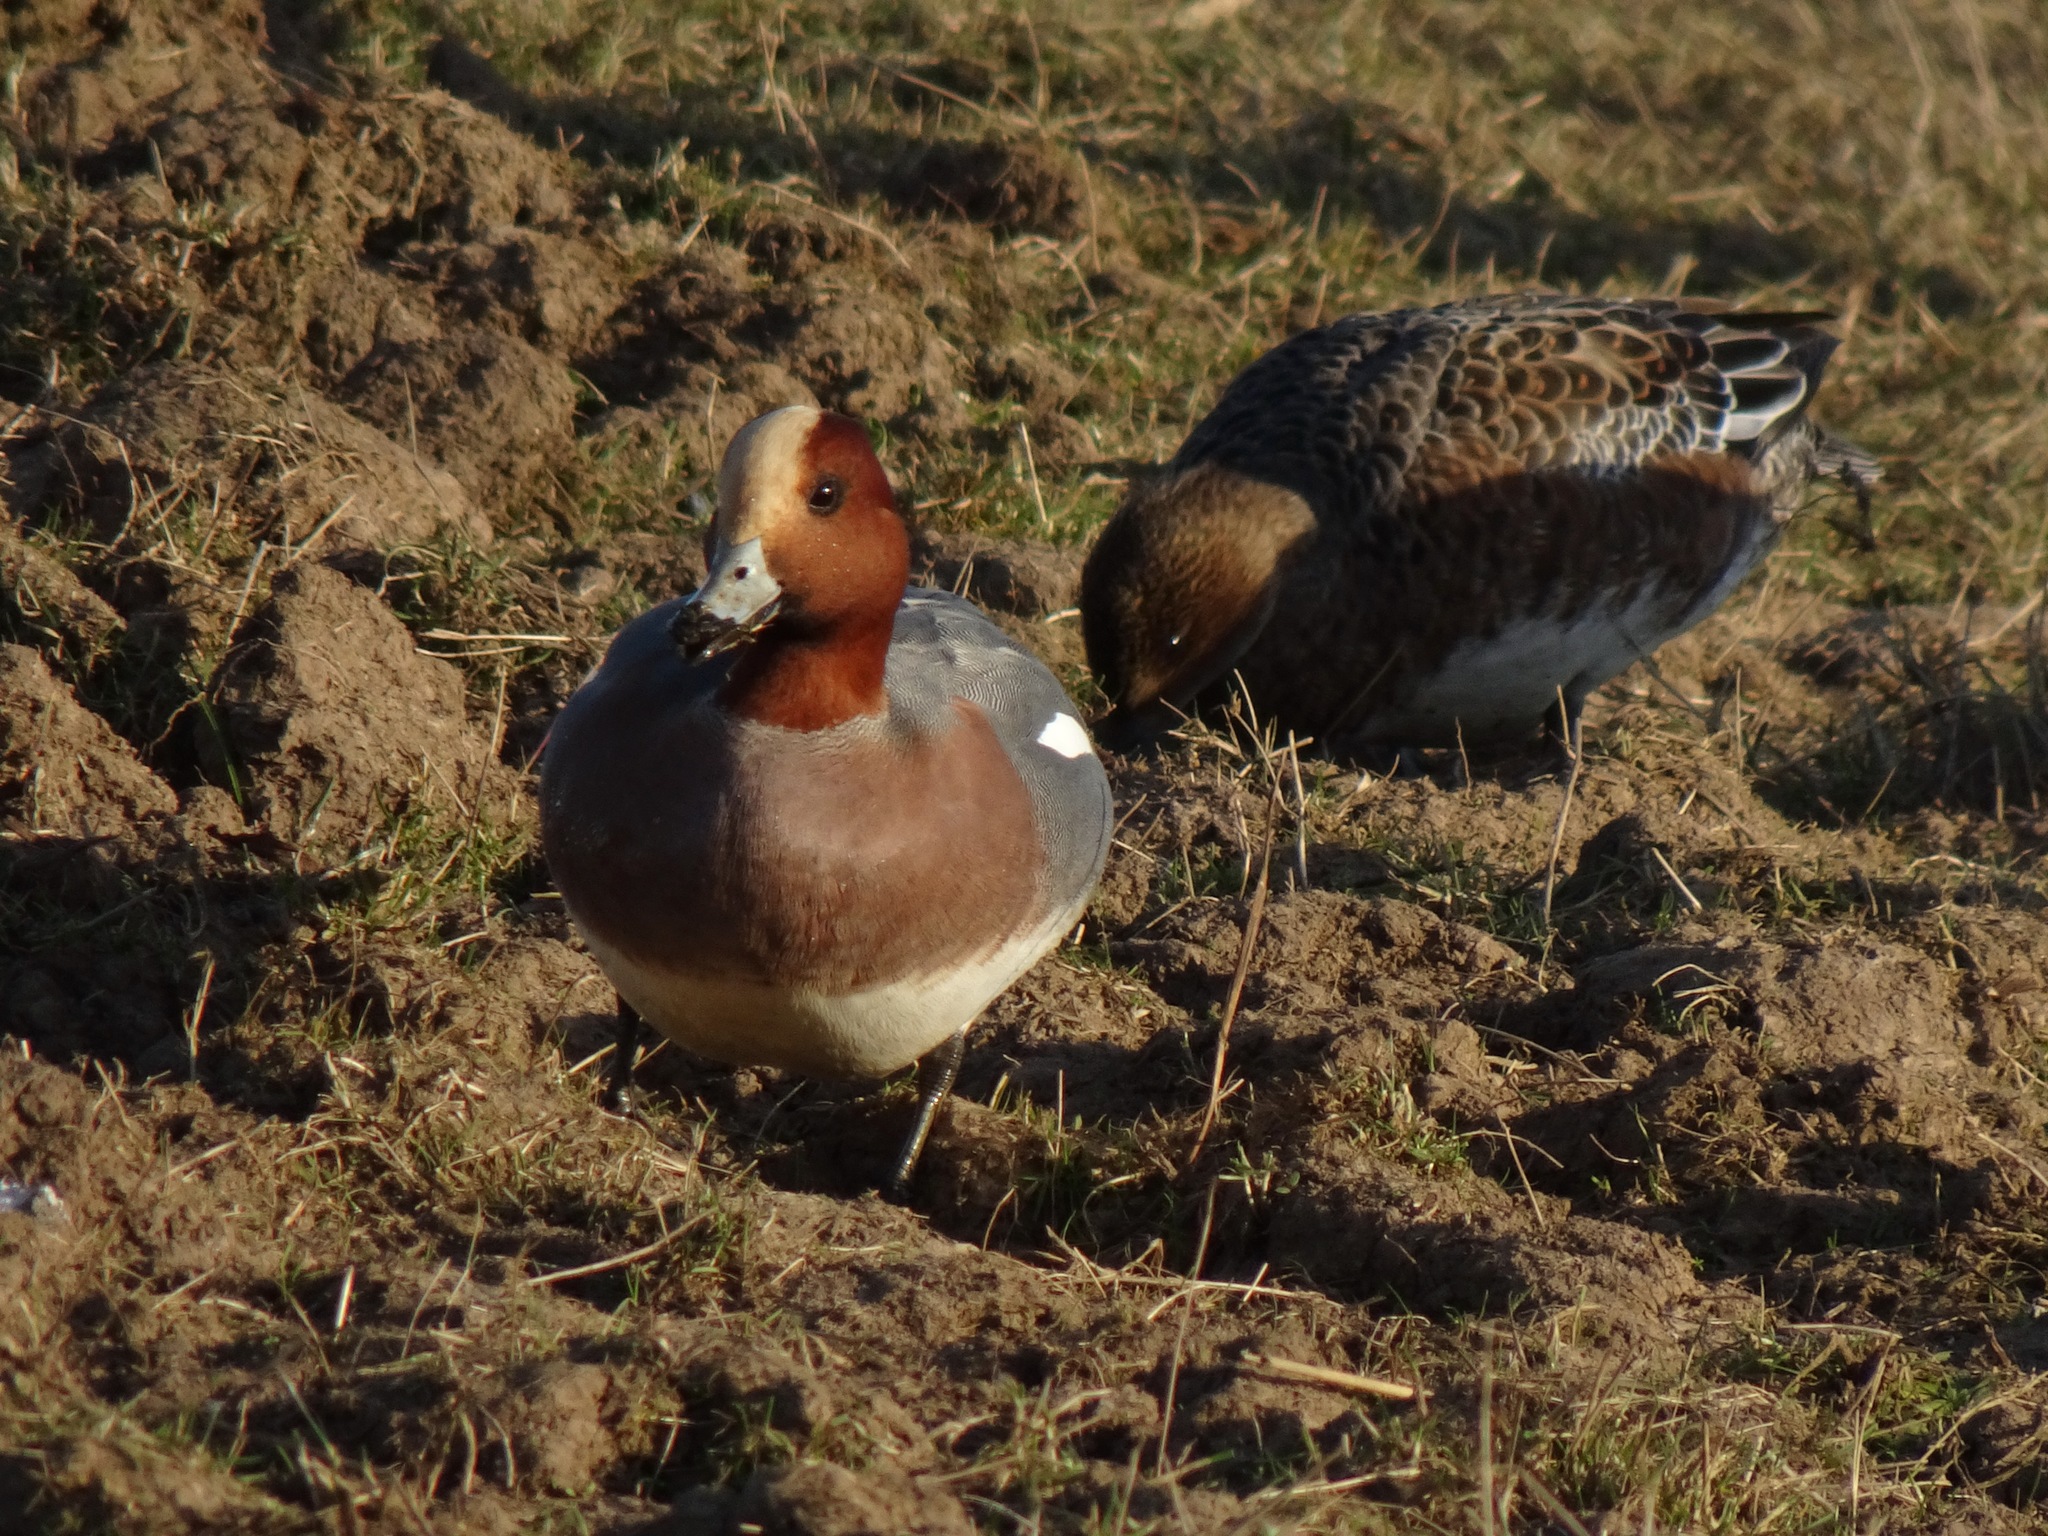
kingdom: Animalia
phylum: Chordata
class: Aves
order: Anseriformes
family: Anatidae
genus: Mareca
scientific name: Mareca penelope
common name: Eurasian wigeon
